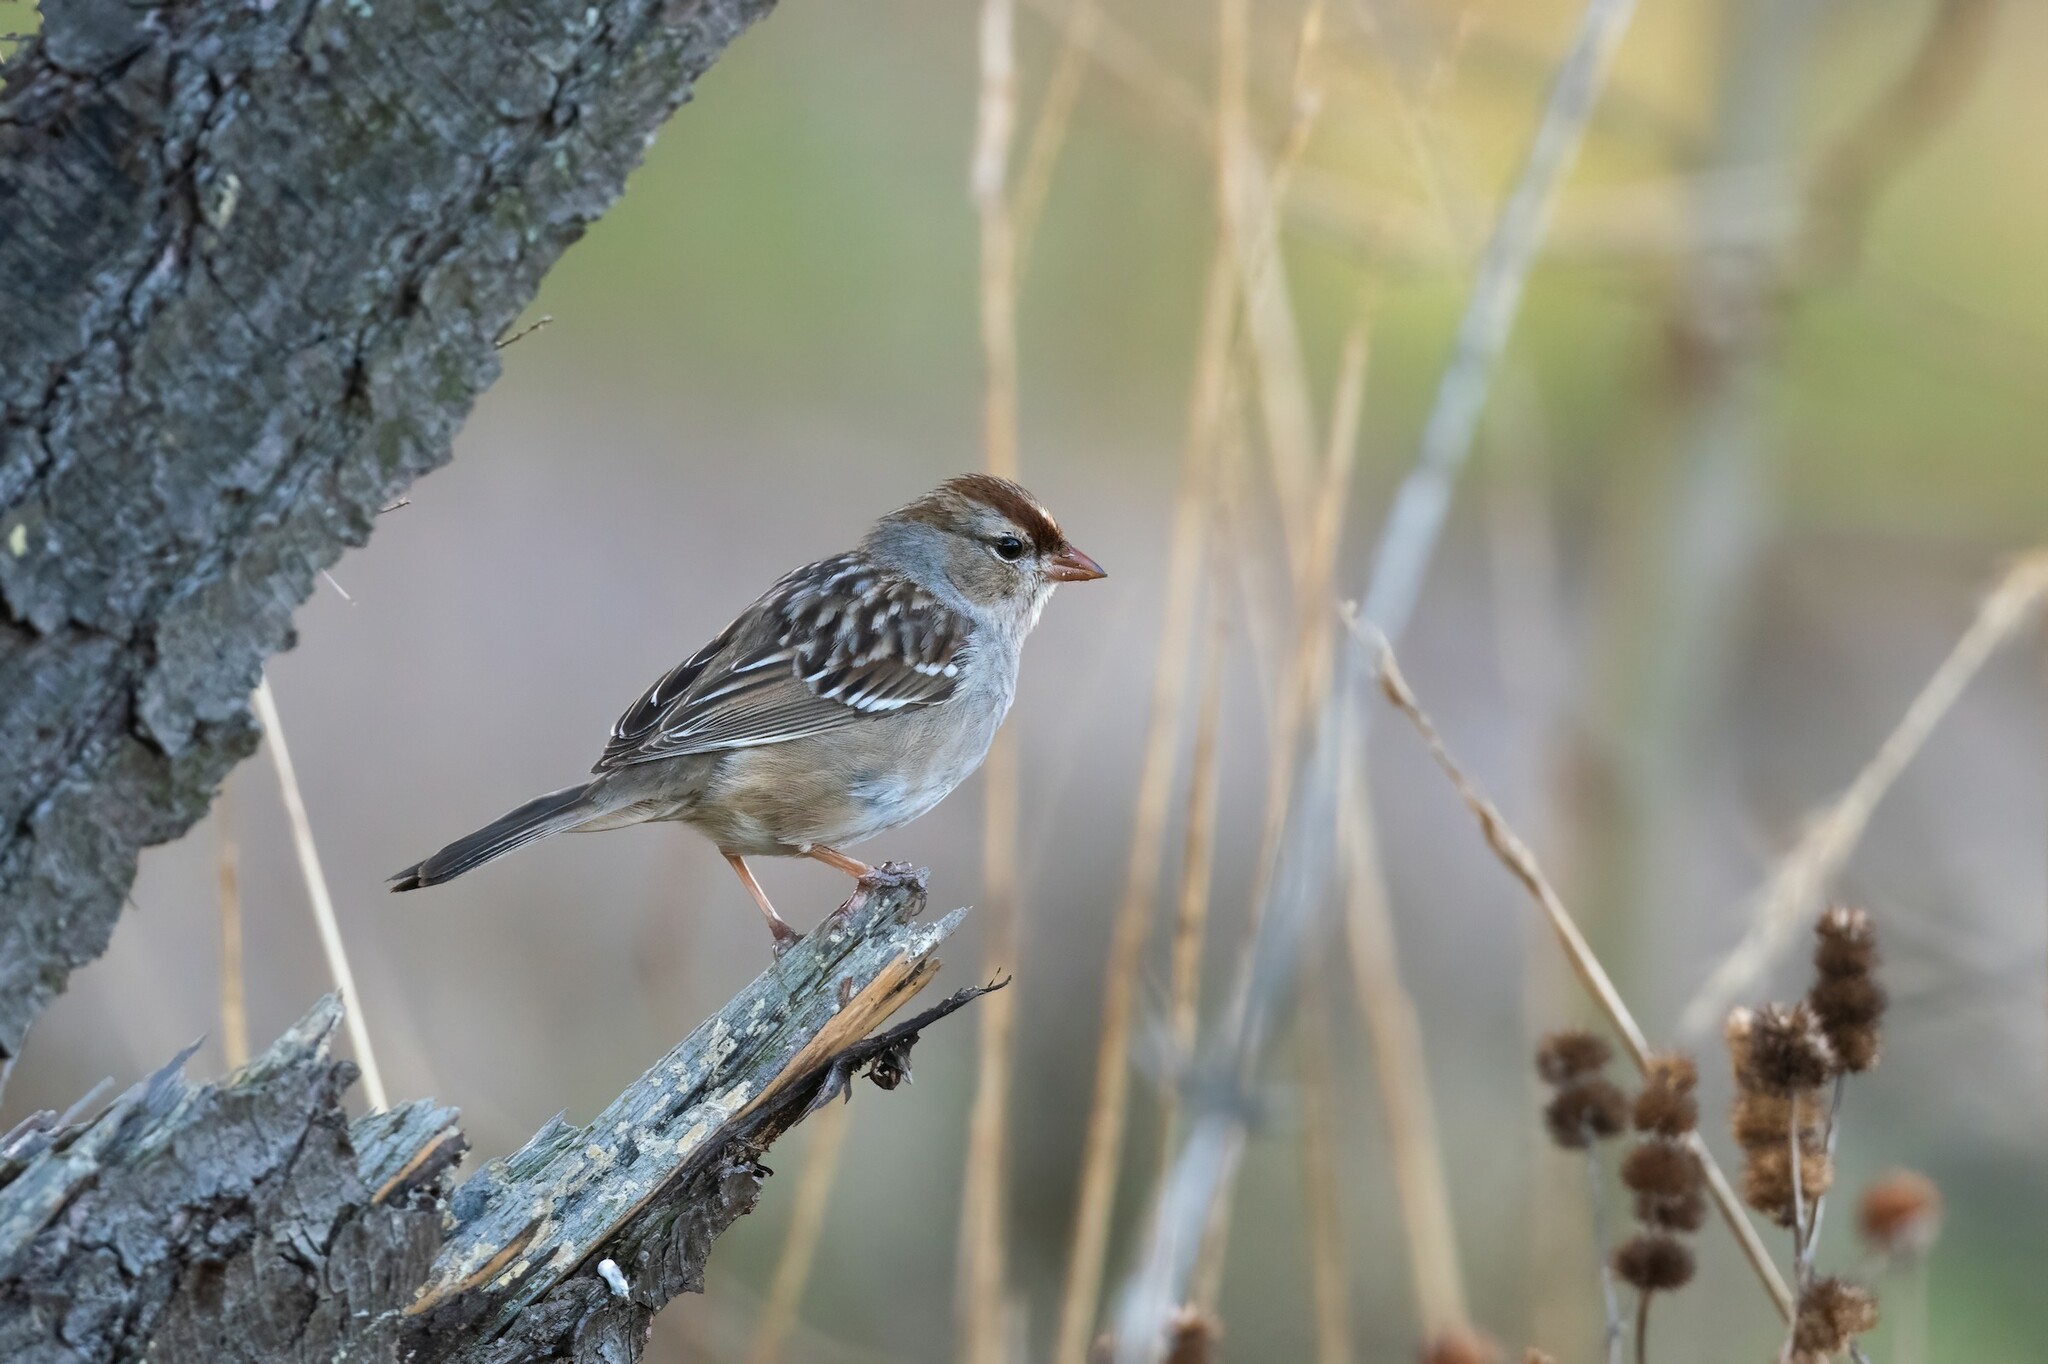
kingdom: Animalia
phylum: Chordata
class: Aves
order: Passeriformes
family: Passerellidae
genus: Zonotrichia
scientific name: Zonotrichia leucophrys
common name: White-crowned sparrow
